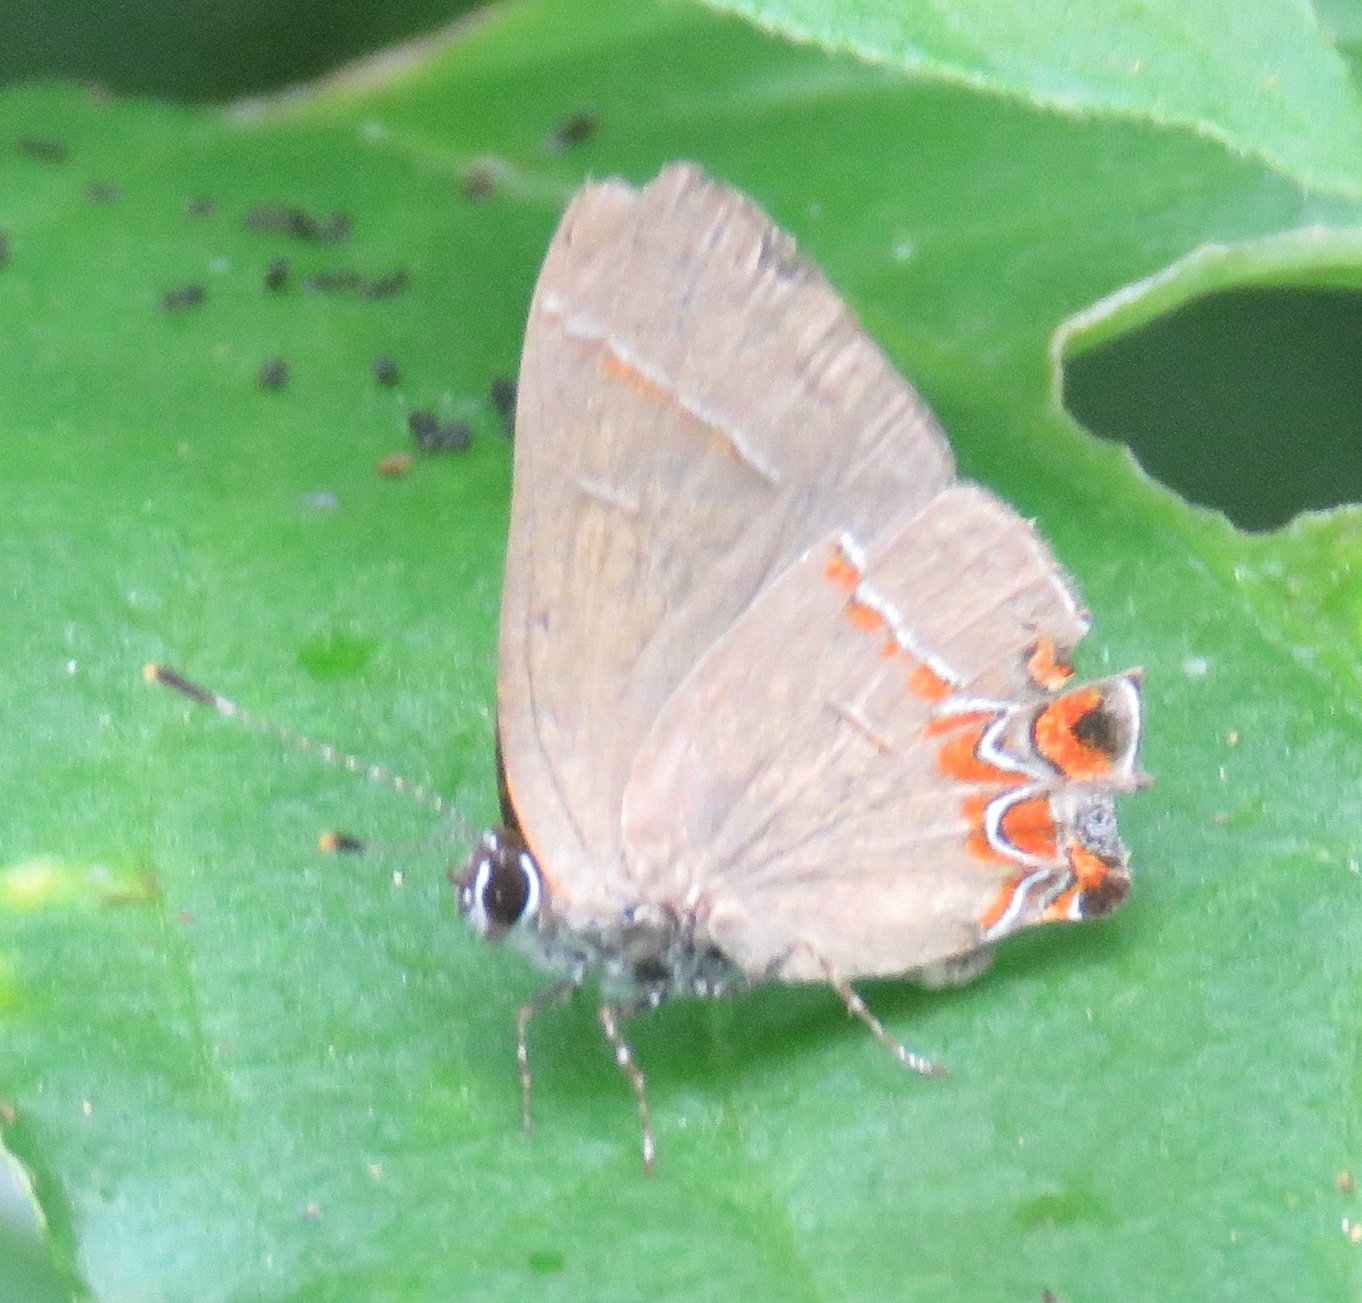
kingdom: Animalia
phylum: Arthropoda
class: Insecta
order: Lepidoptera
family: Lycaenidae
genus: Calycopis
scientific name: Calycopis isobeon
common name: Dusky-blue groundstreak
